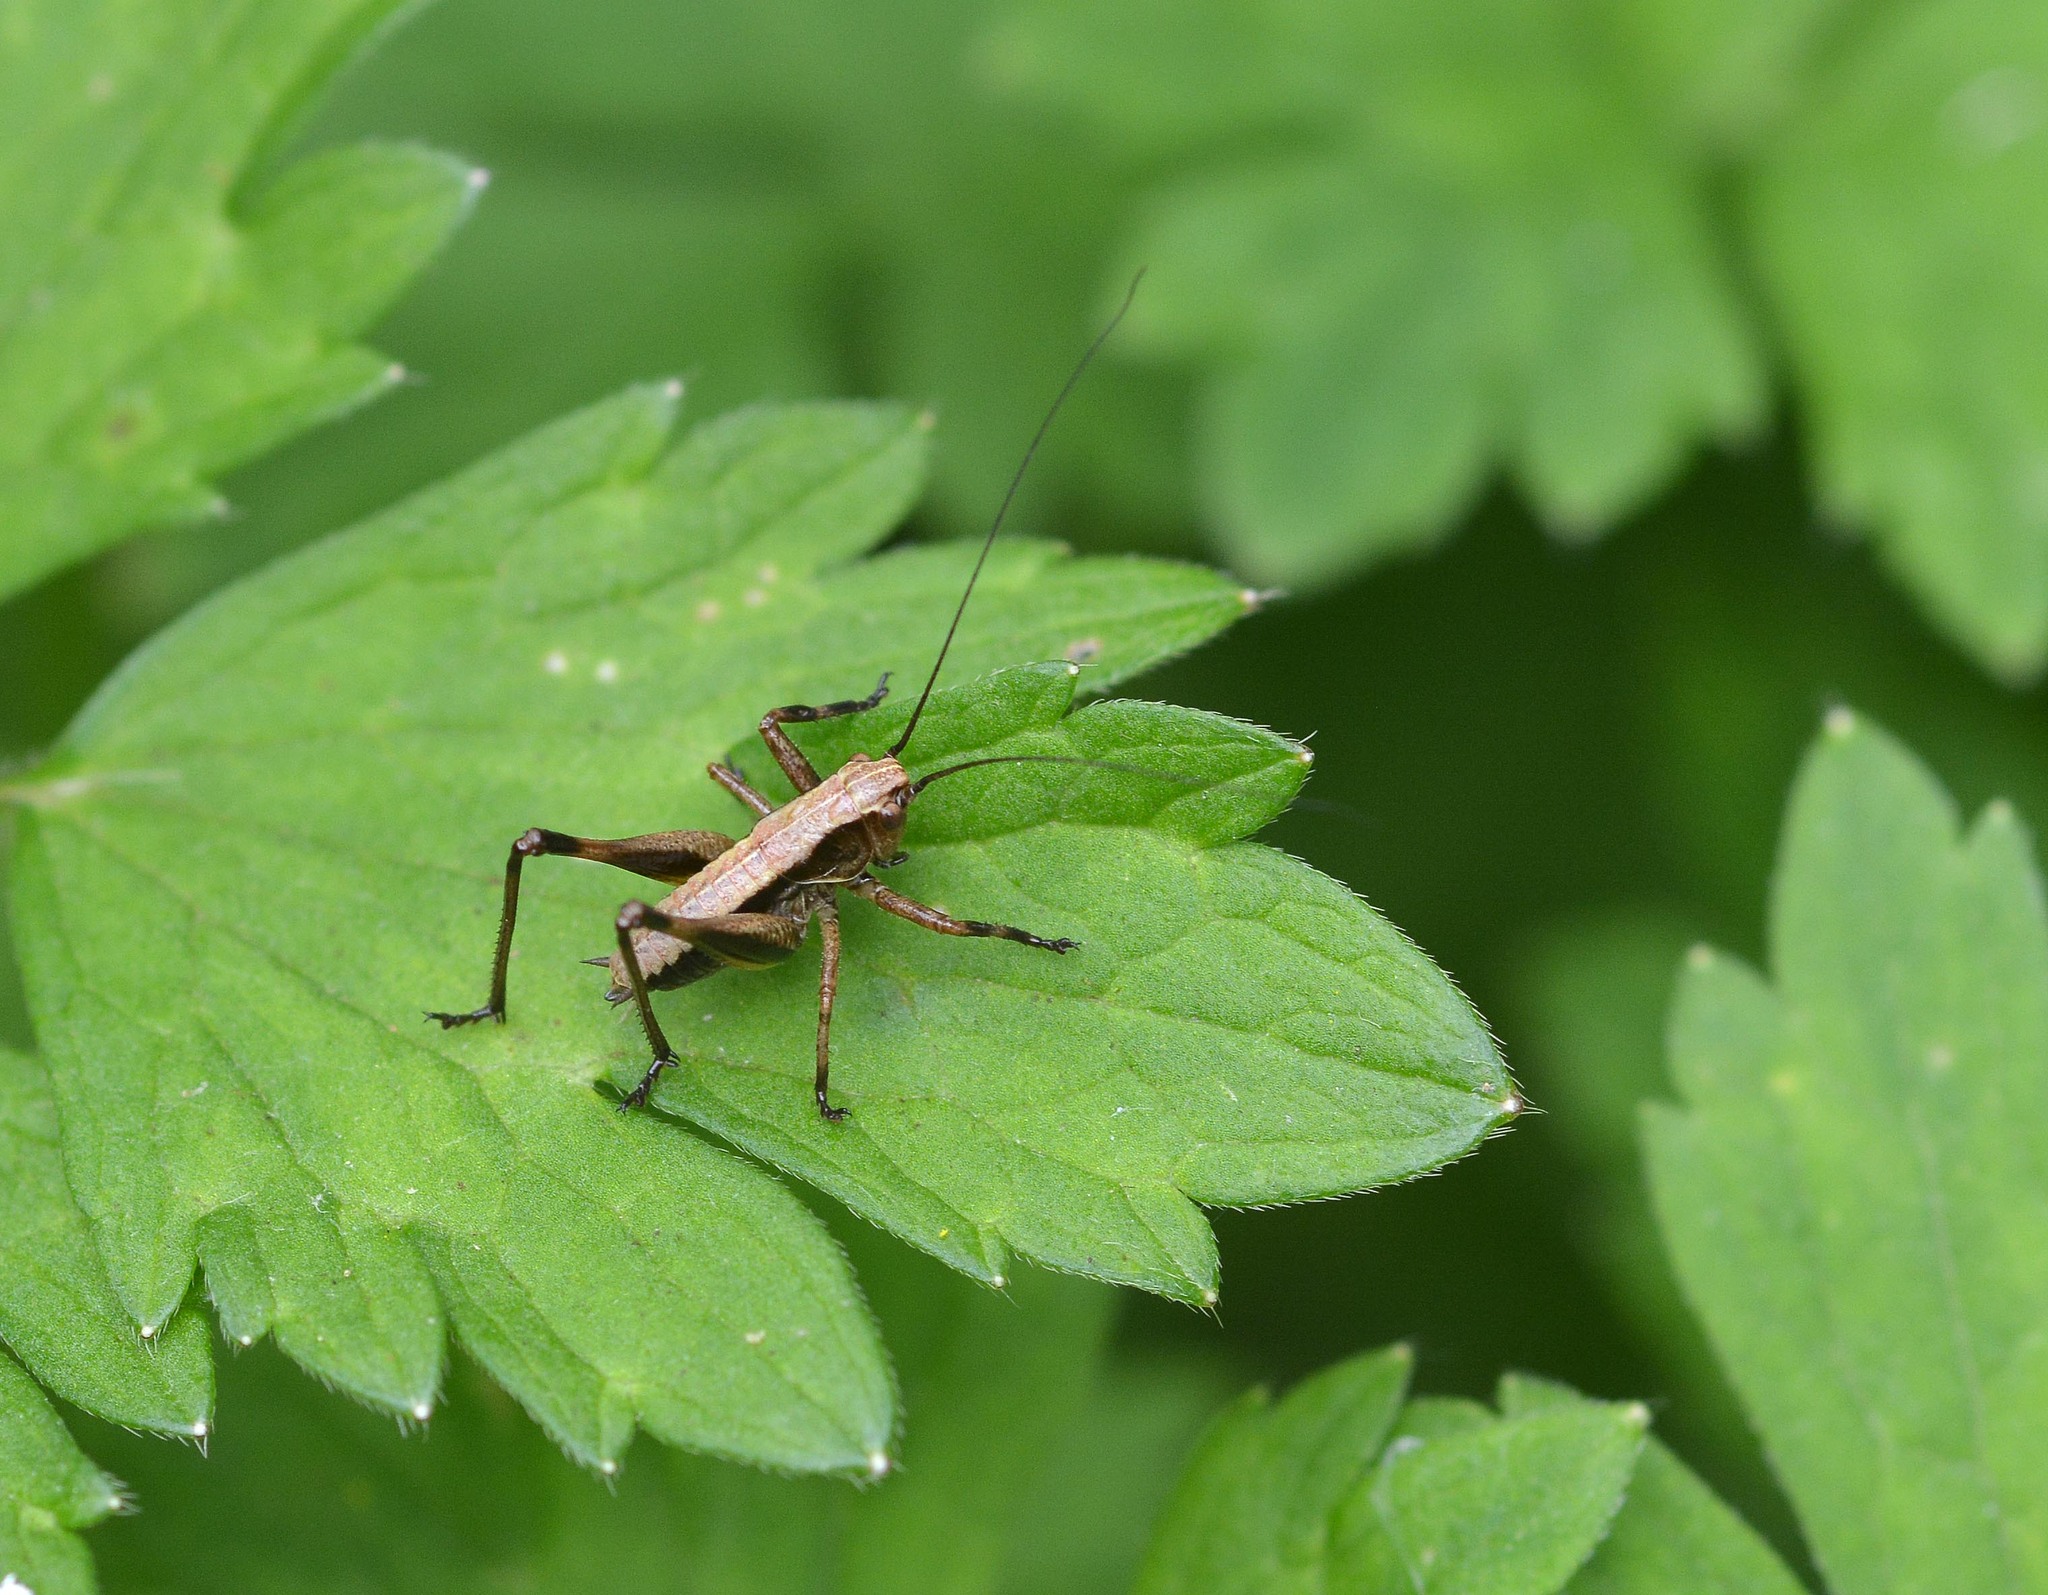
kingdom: Animalia
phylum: Arthropoda
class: Insecta
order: Orthoptera
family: Tettigoniidae
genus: Pholidoptera
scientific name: Pholidoptera griseoaptera
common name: Dark bush-cricket
